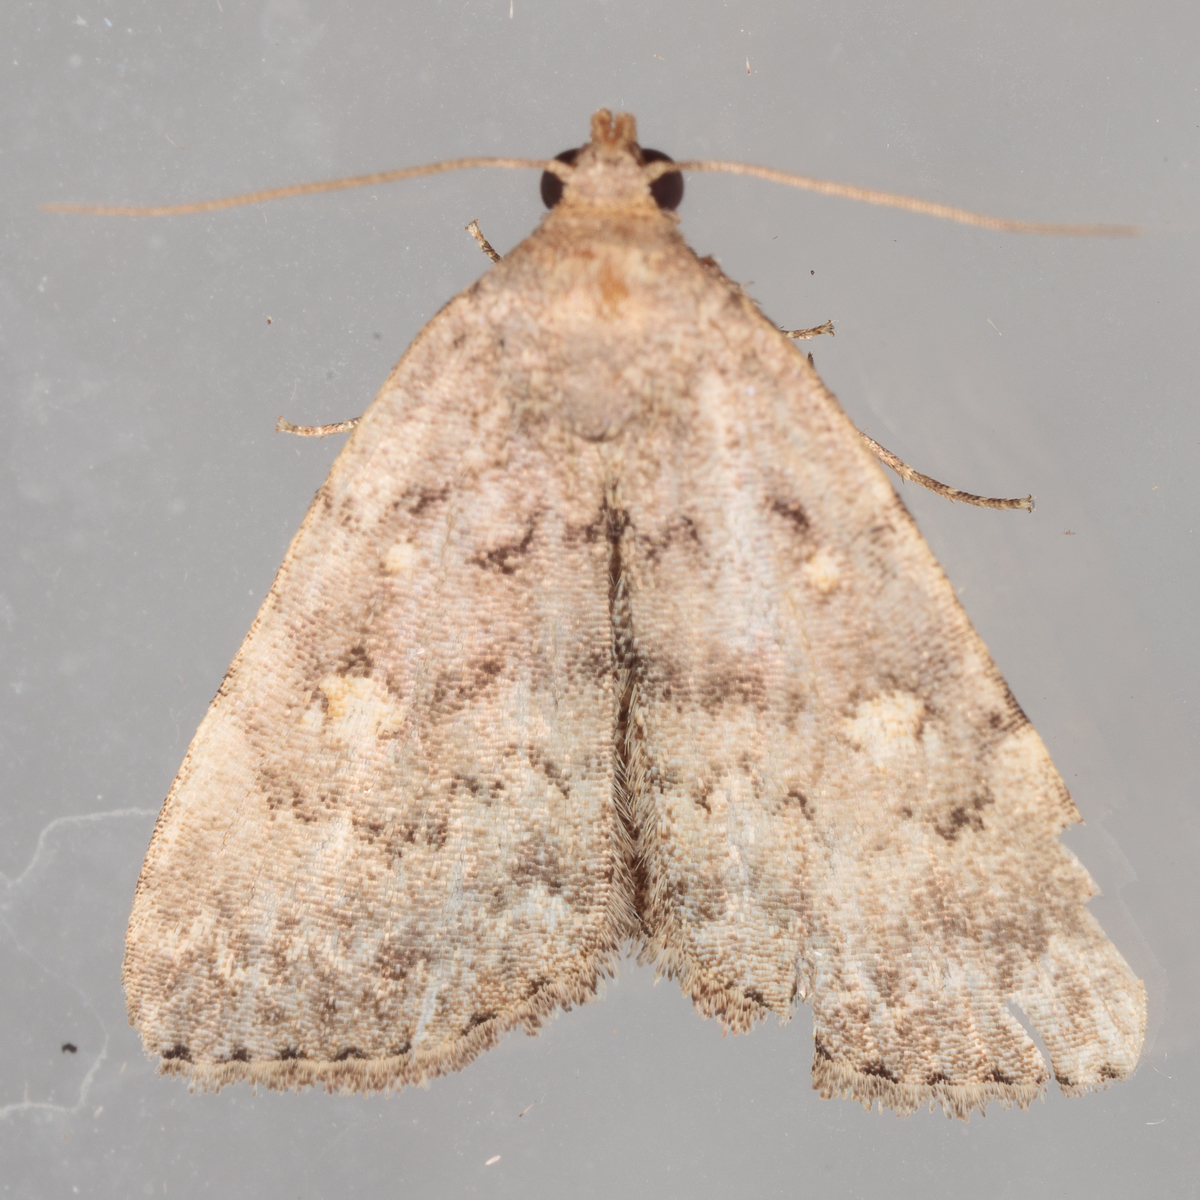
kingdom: Animalia
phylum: Arthropoda
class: Insecta
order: Lepidoptera
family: Erebidae
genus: Idia
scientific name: Idia aemula
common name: Common idia moth
